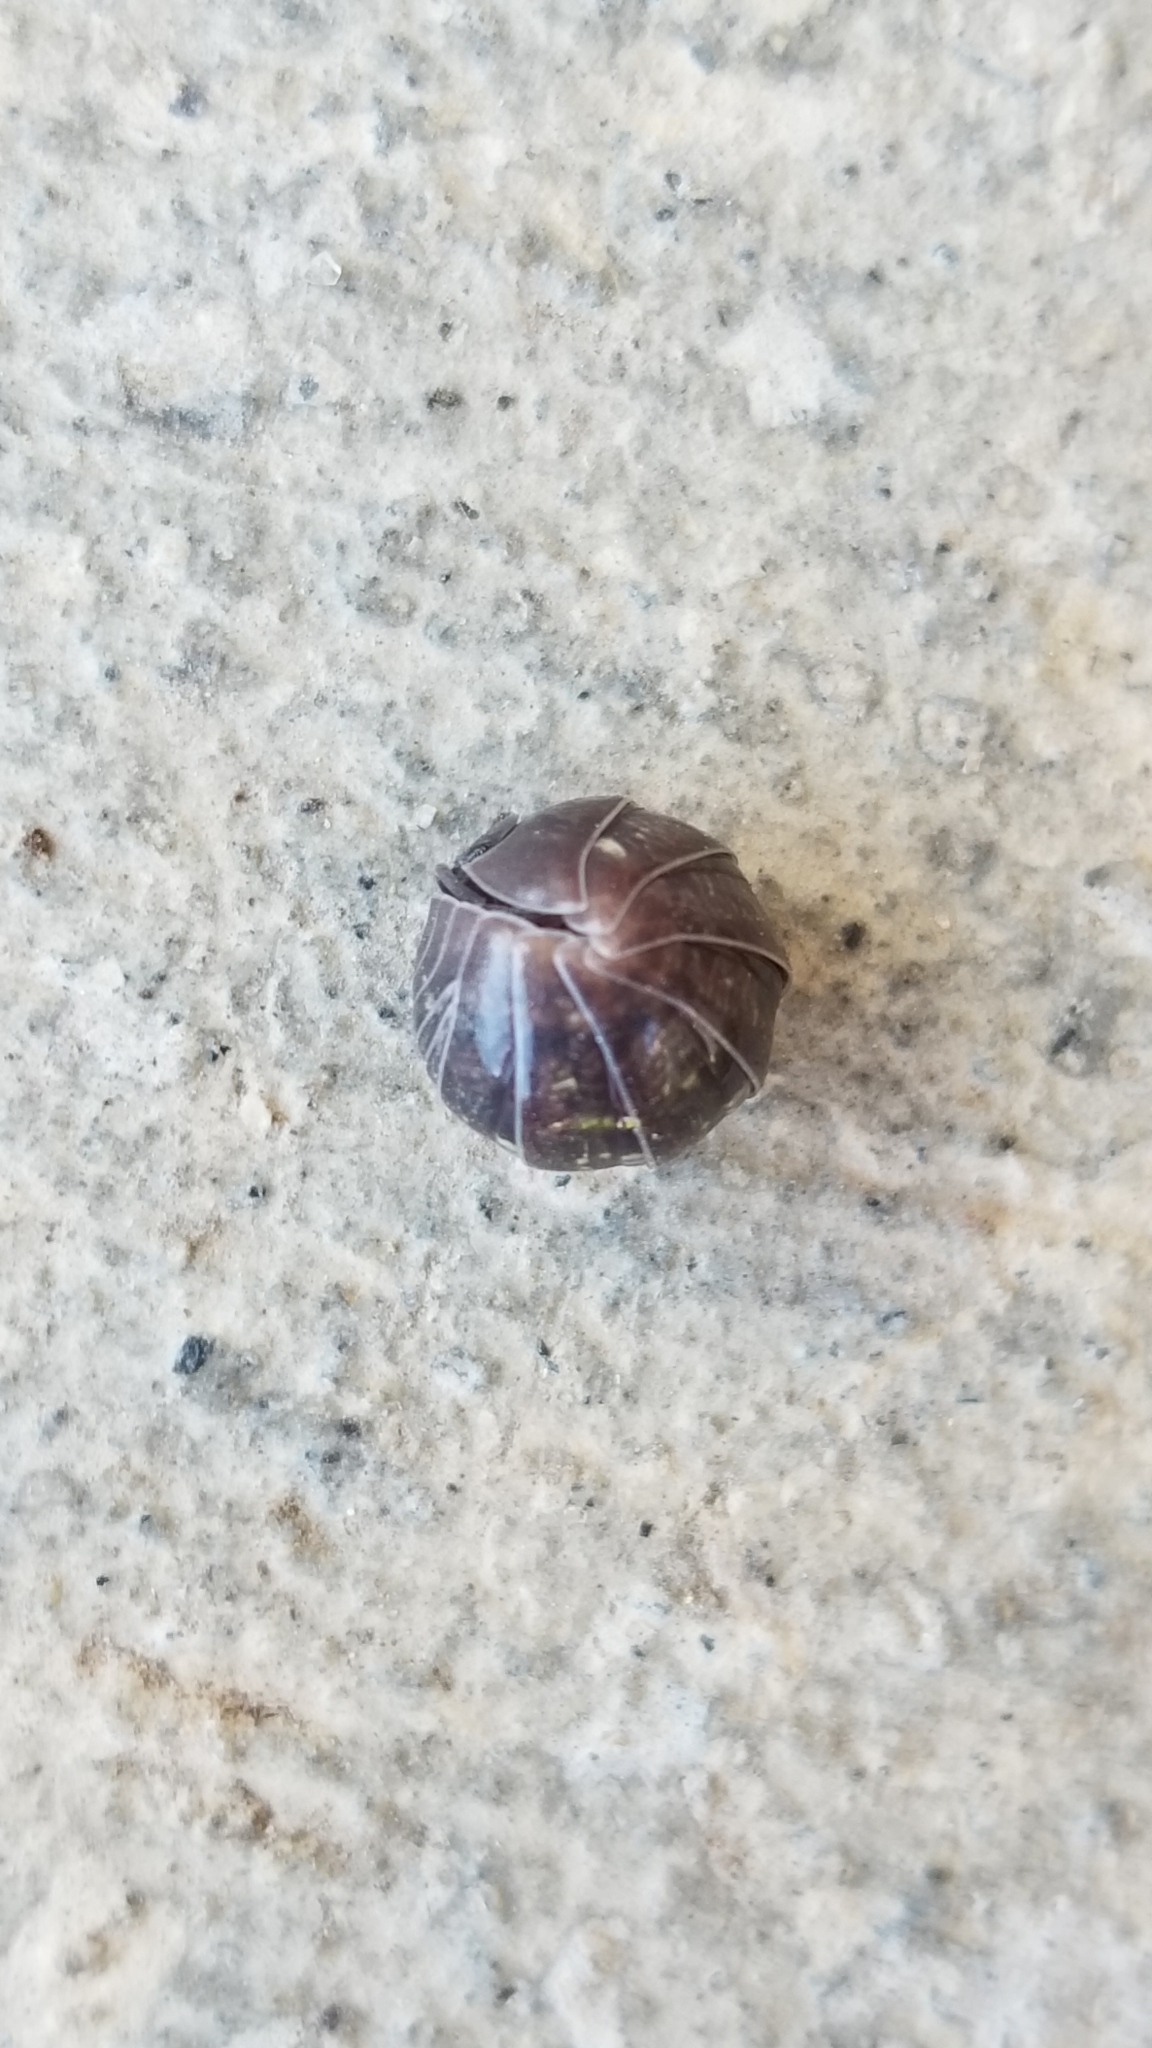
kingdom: Animalia
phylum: Arthropoda
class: Malacostraca
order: Isopoda
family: Armadillidiidae
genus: Armadillidium
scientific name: Armadillidium vulgare
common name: Common pill woodlouse
